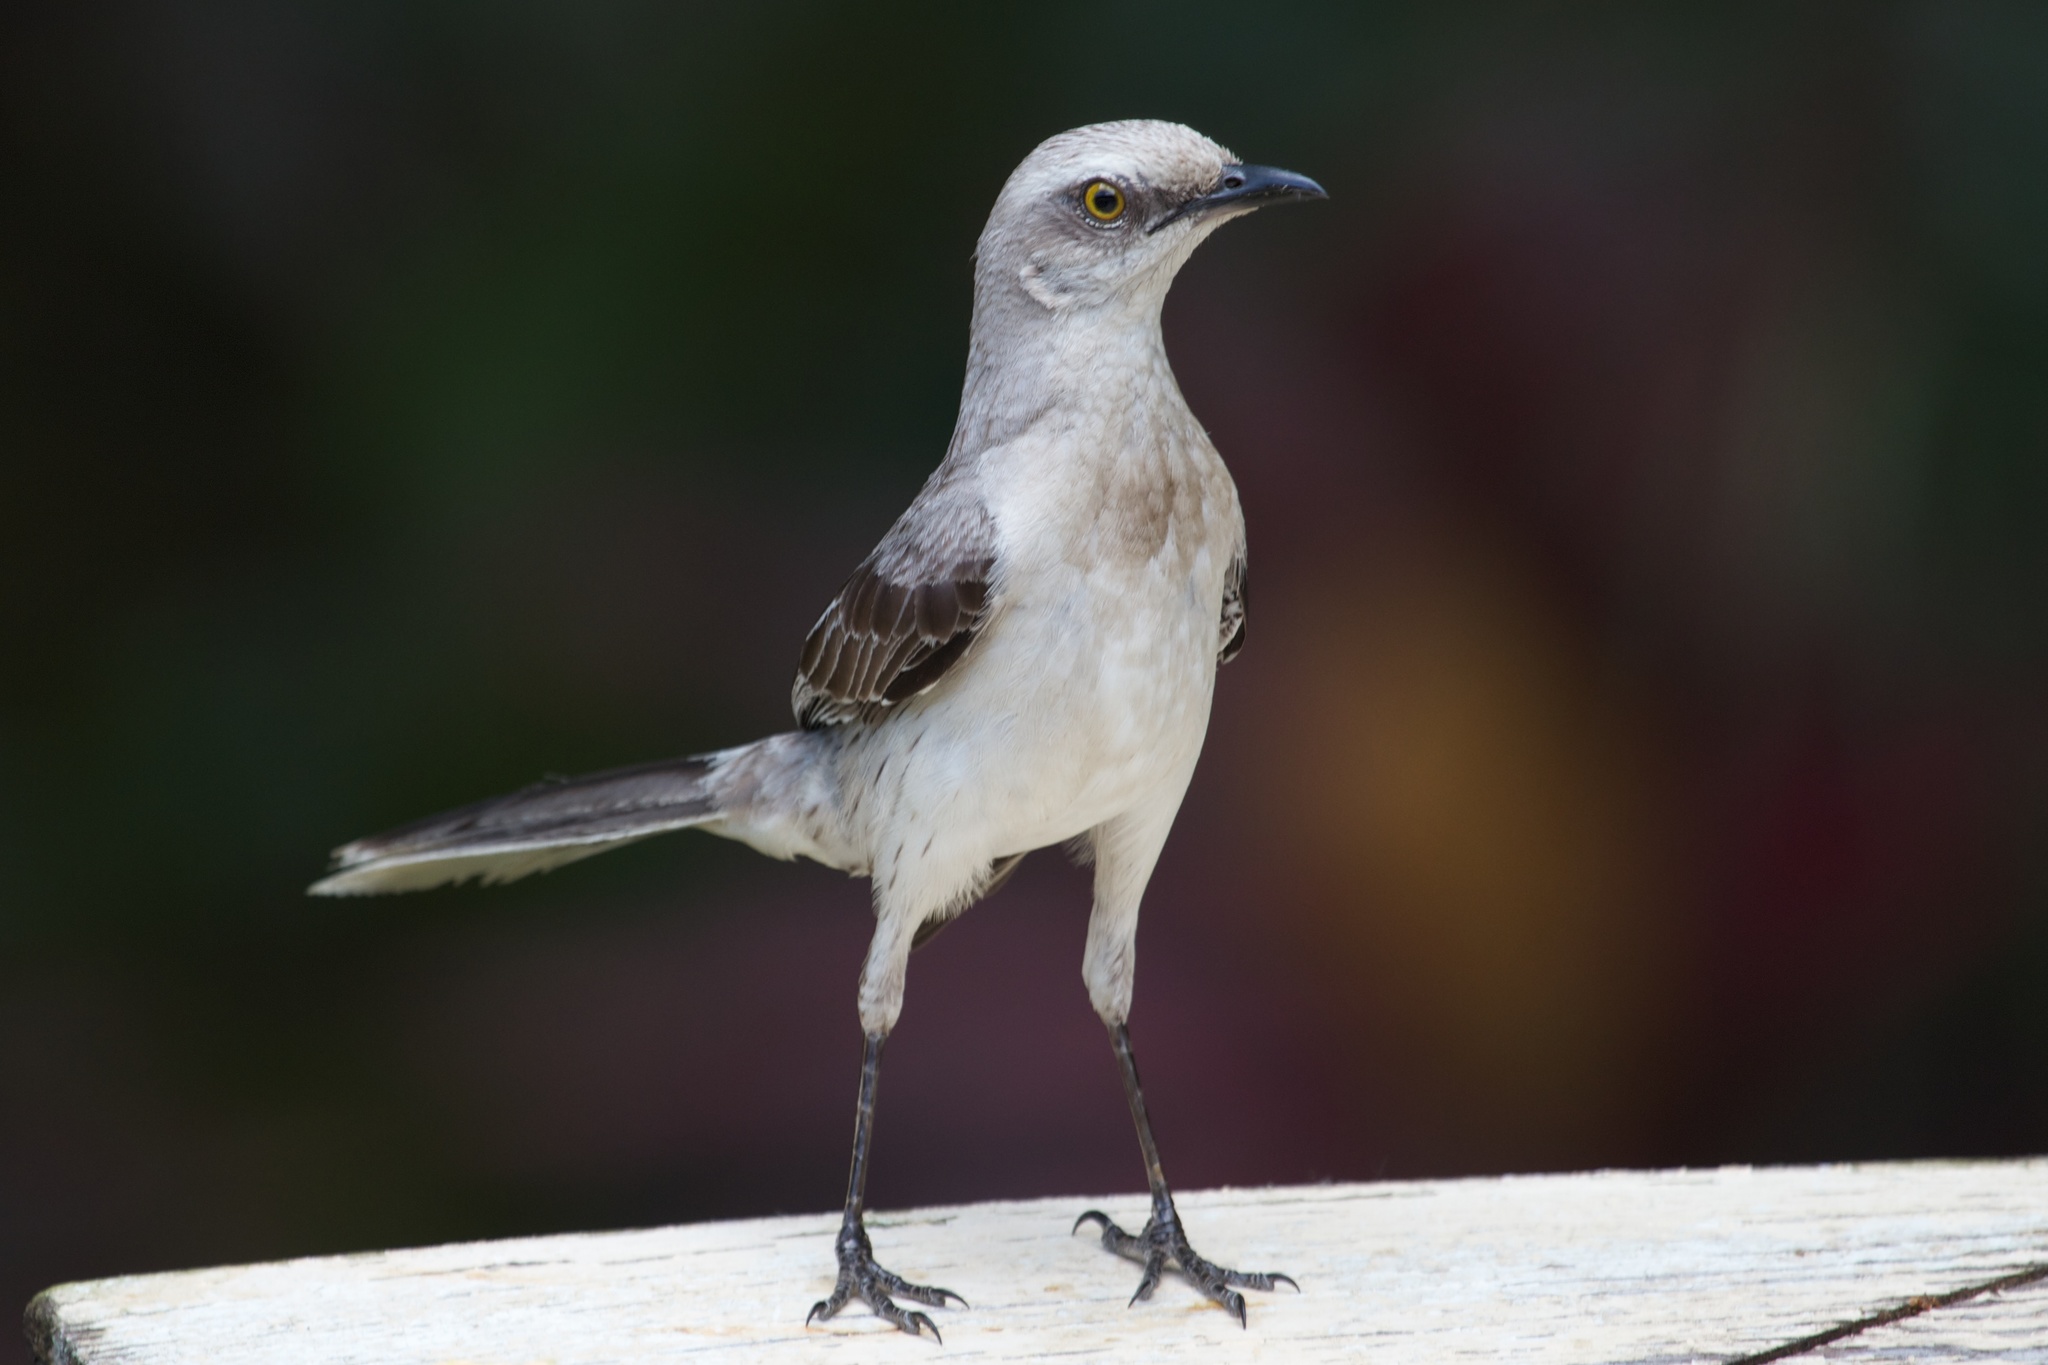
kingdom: Animalia
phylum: Chordata
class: Aves
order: Passeriformes
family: Mimidae
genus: Mimus
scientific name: Mimus gilvus
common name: Tropical mockingbird
